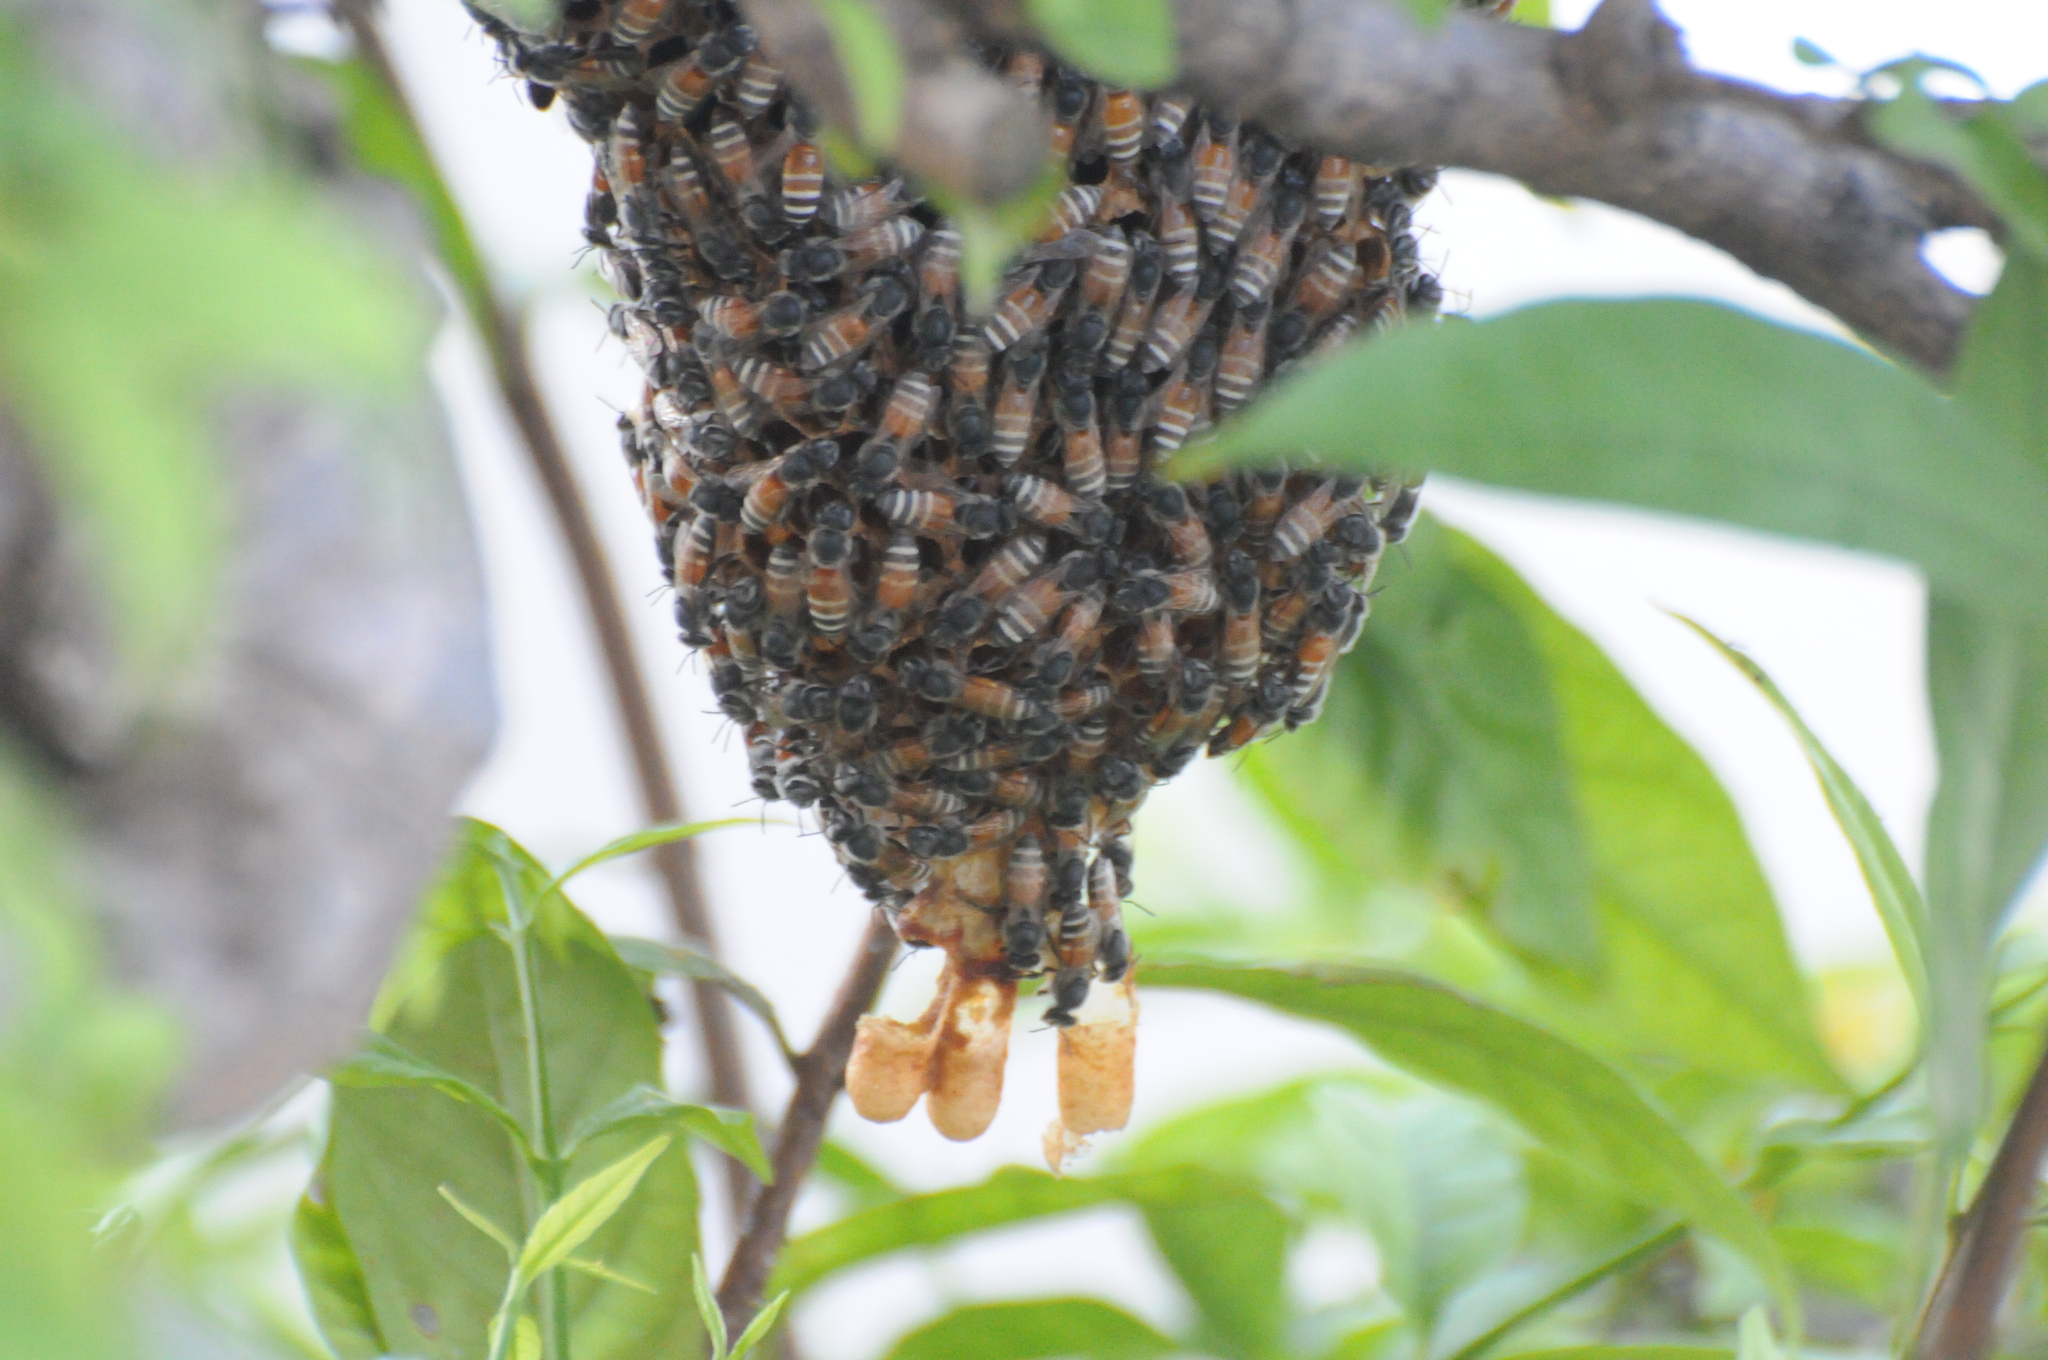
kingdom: Animalia
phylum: Arthropoda
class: Insecta
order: Hymenoptera
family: Apidae
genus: Apis
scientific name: Apis florea
